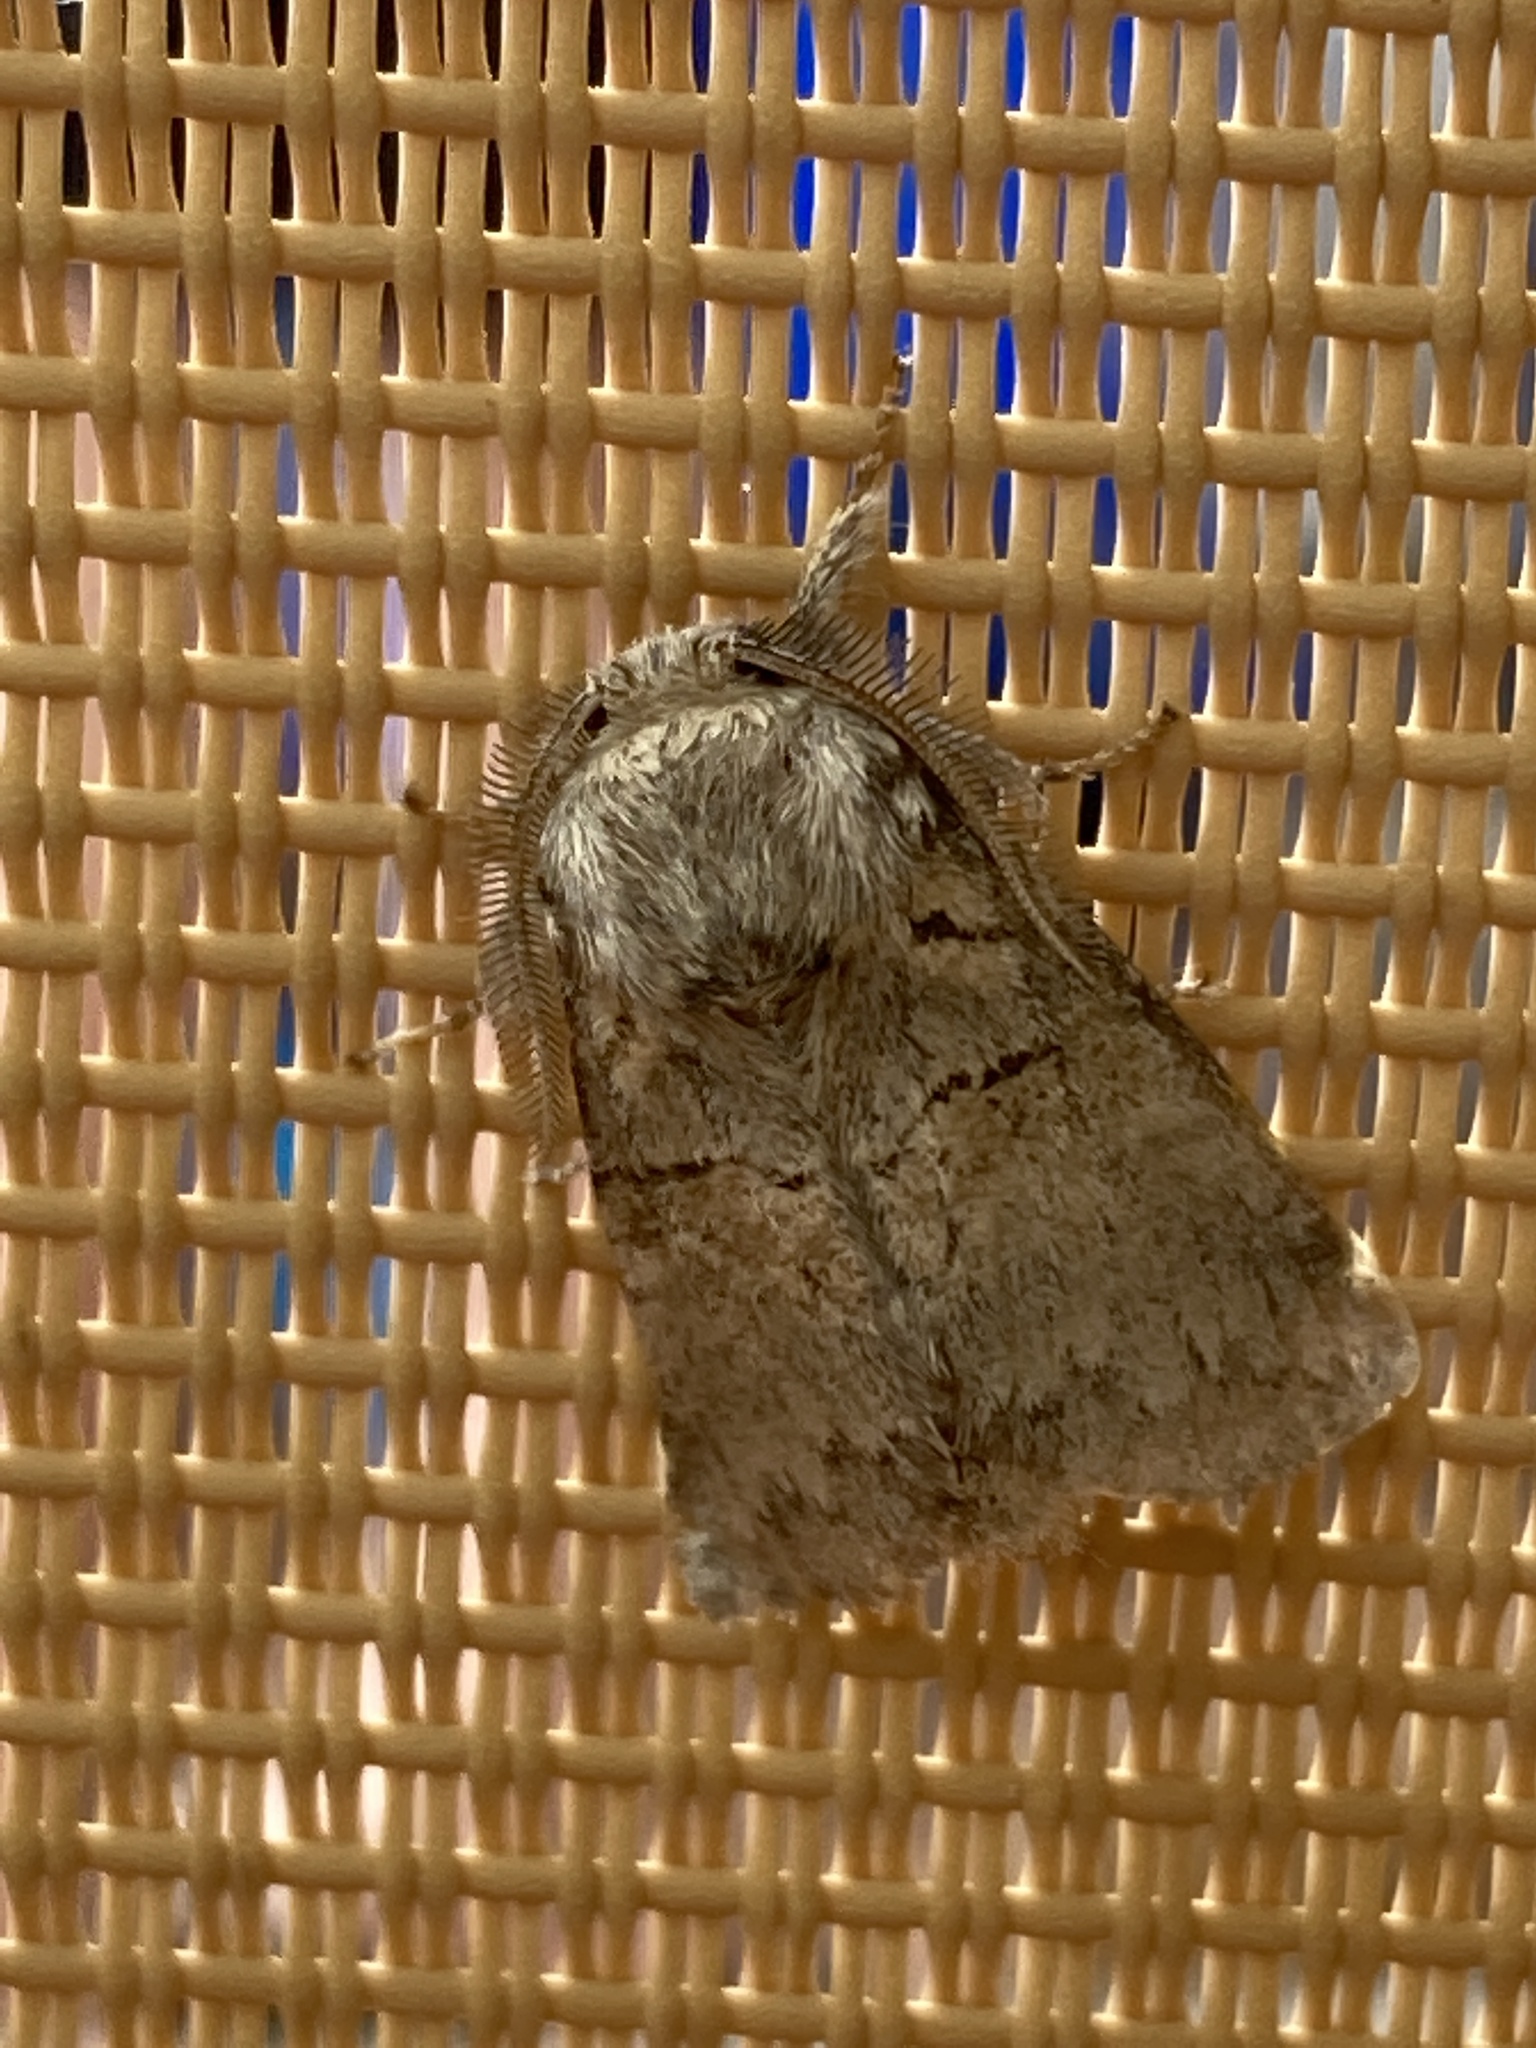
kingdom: Animalia
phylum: Arthropoda
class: Insecta
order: Lepidoptera
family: Notodontidae
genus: Gluphisia
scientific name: Gluphisia septentrionis
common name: Common gluphisia
